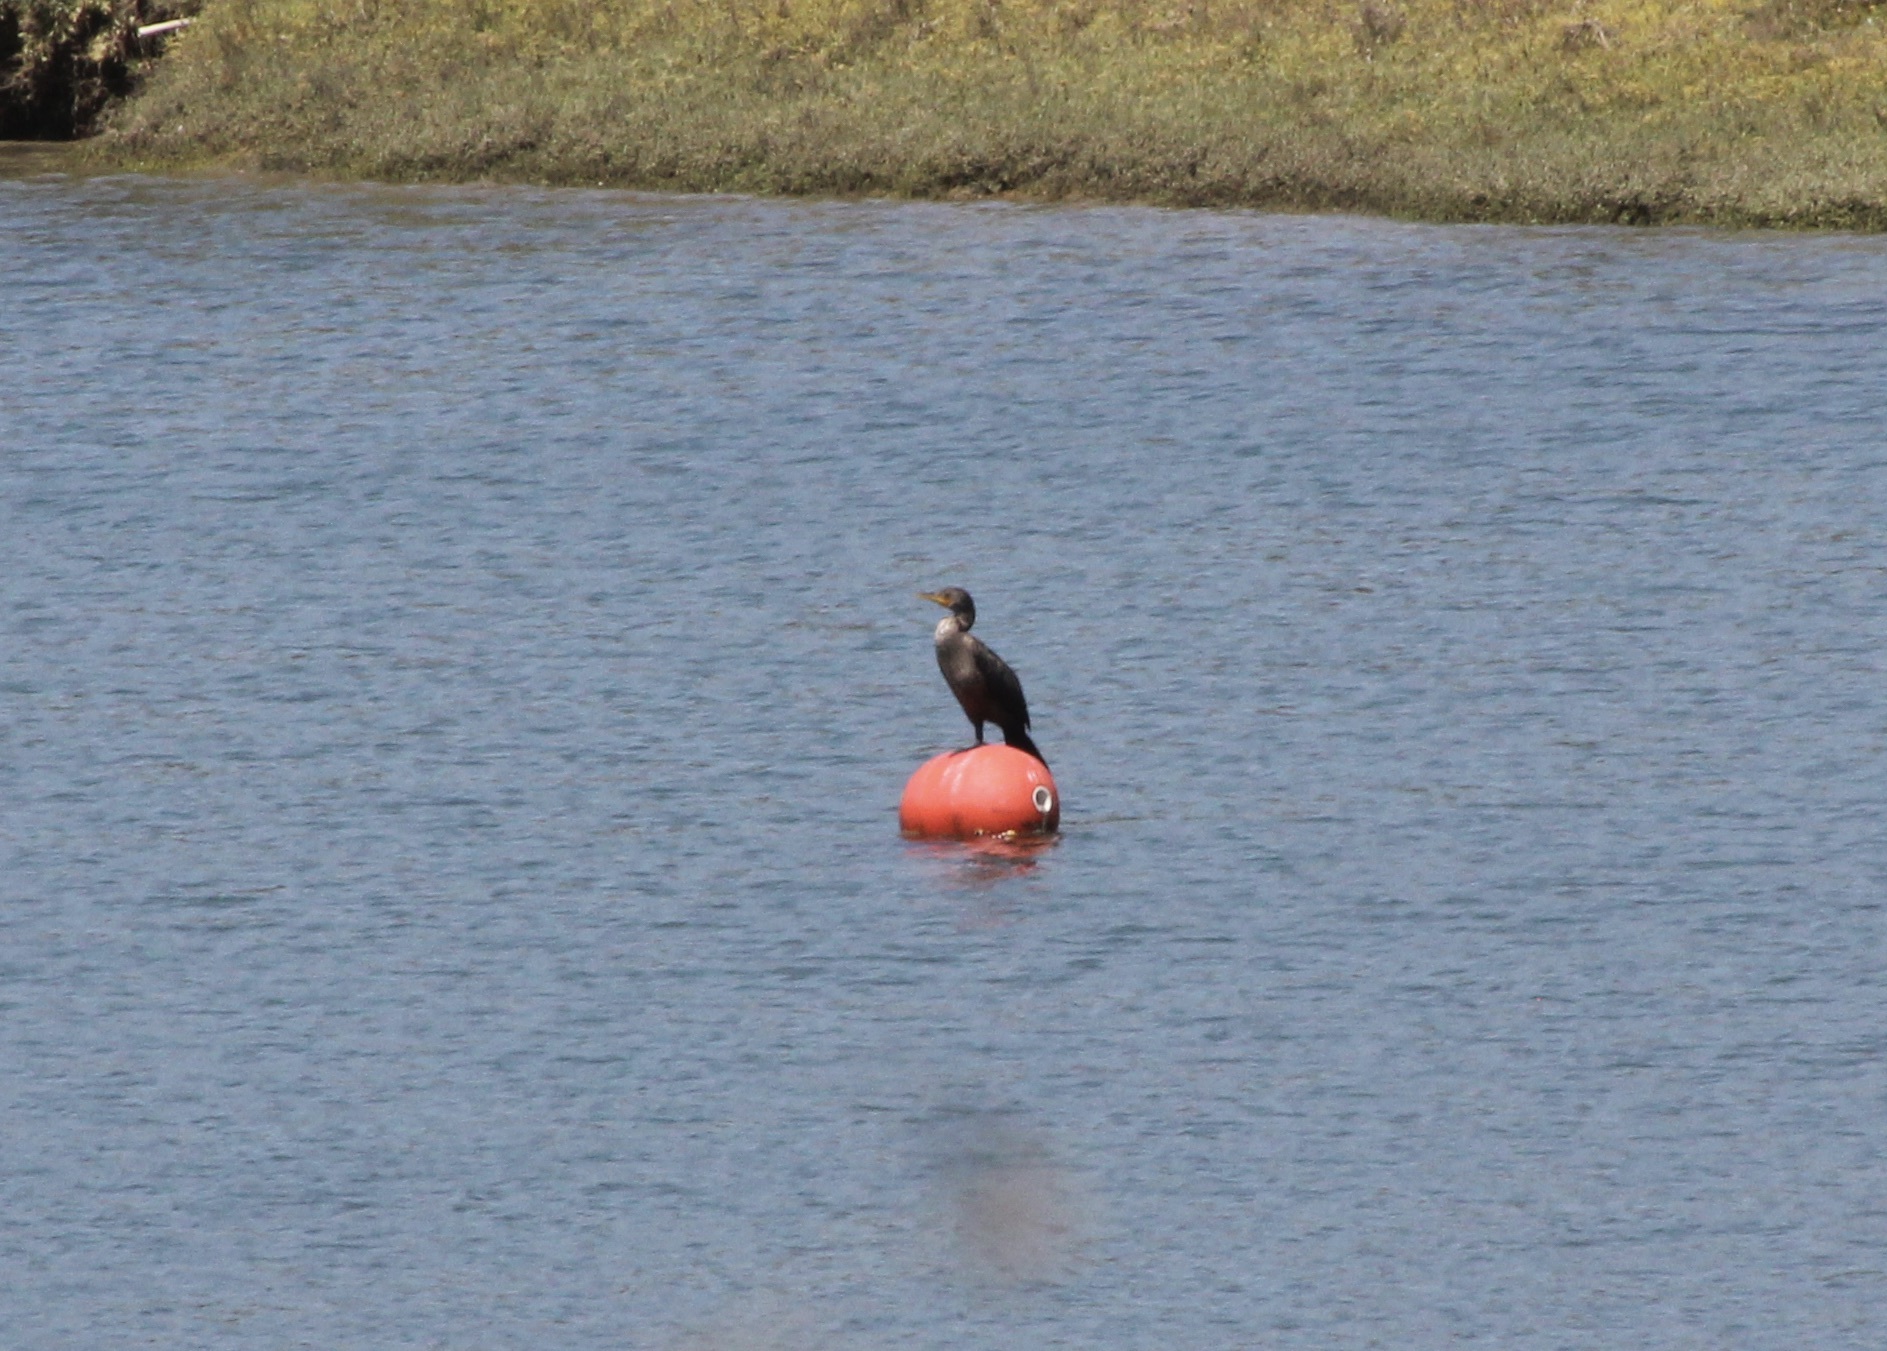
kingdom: Animalia
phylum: Chordata
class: Aves
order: Suliformes
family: Phalacrocoracidae
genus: Phalacrocorax
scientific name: Phalacrocorax auritus
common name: Double-crested cormorant
